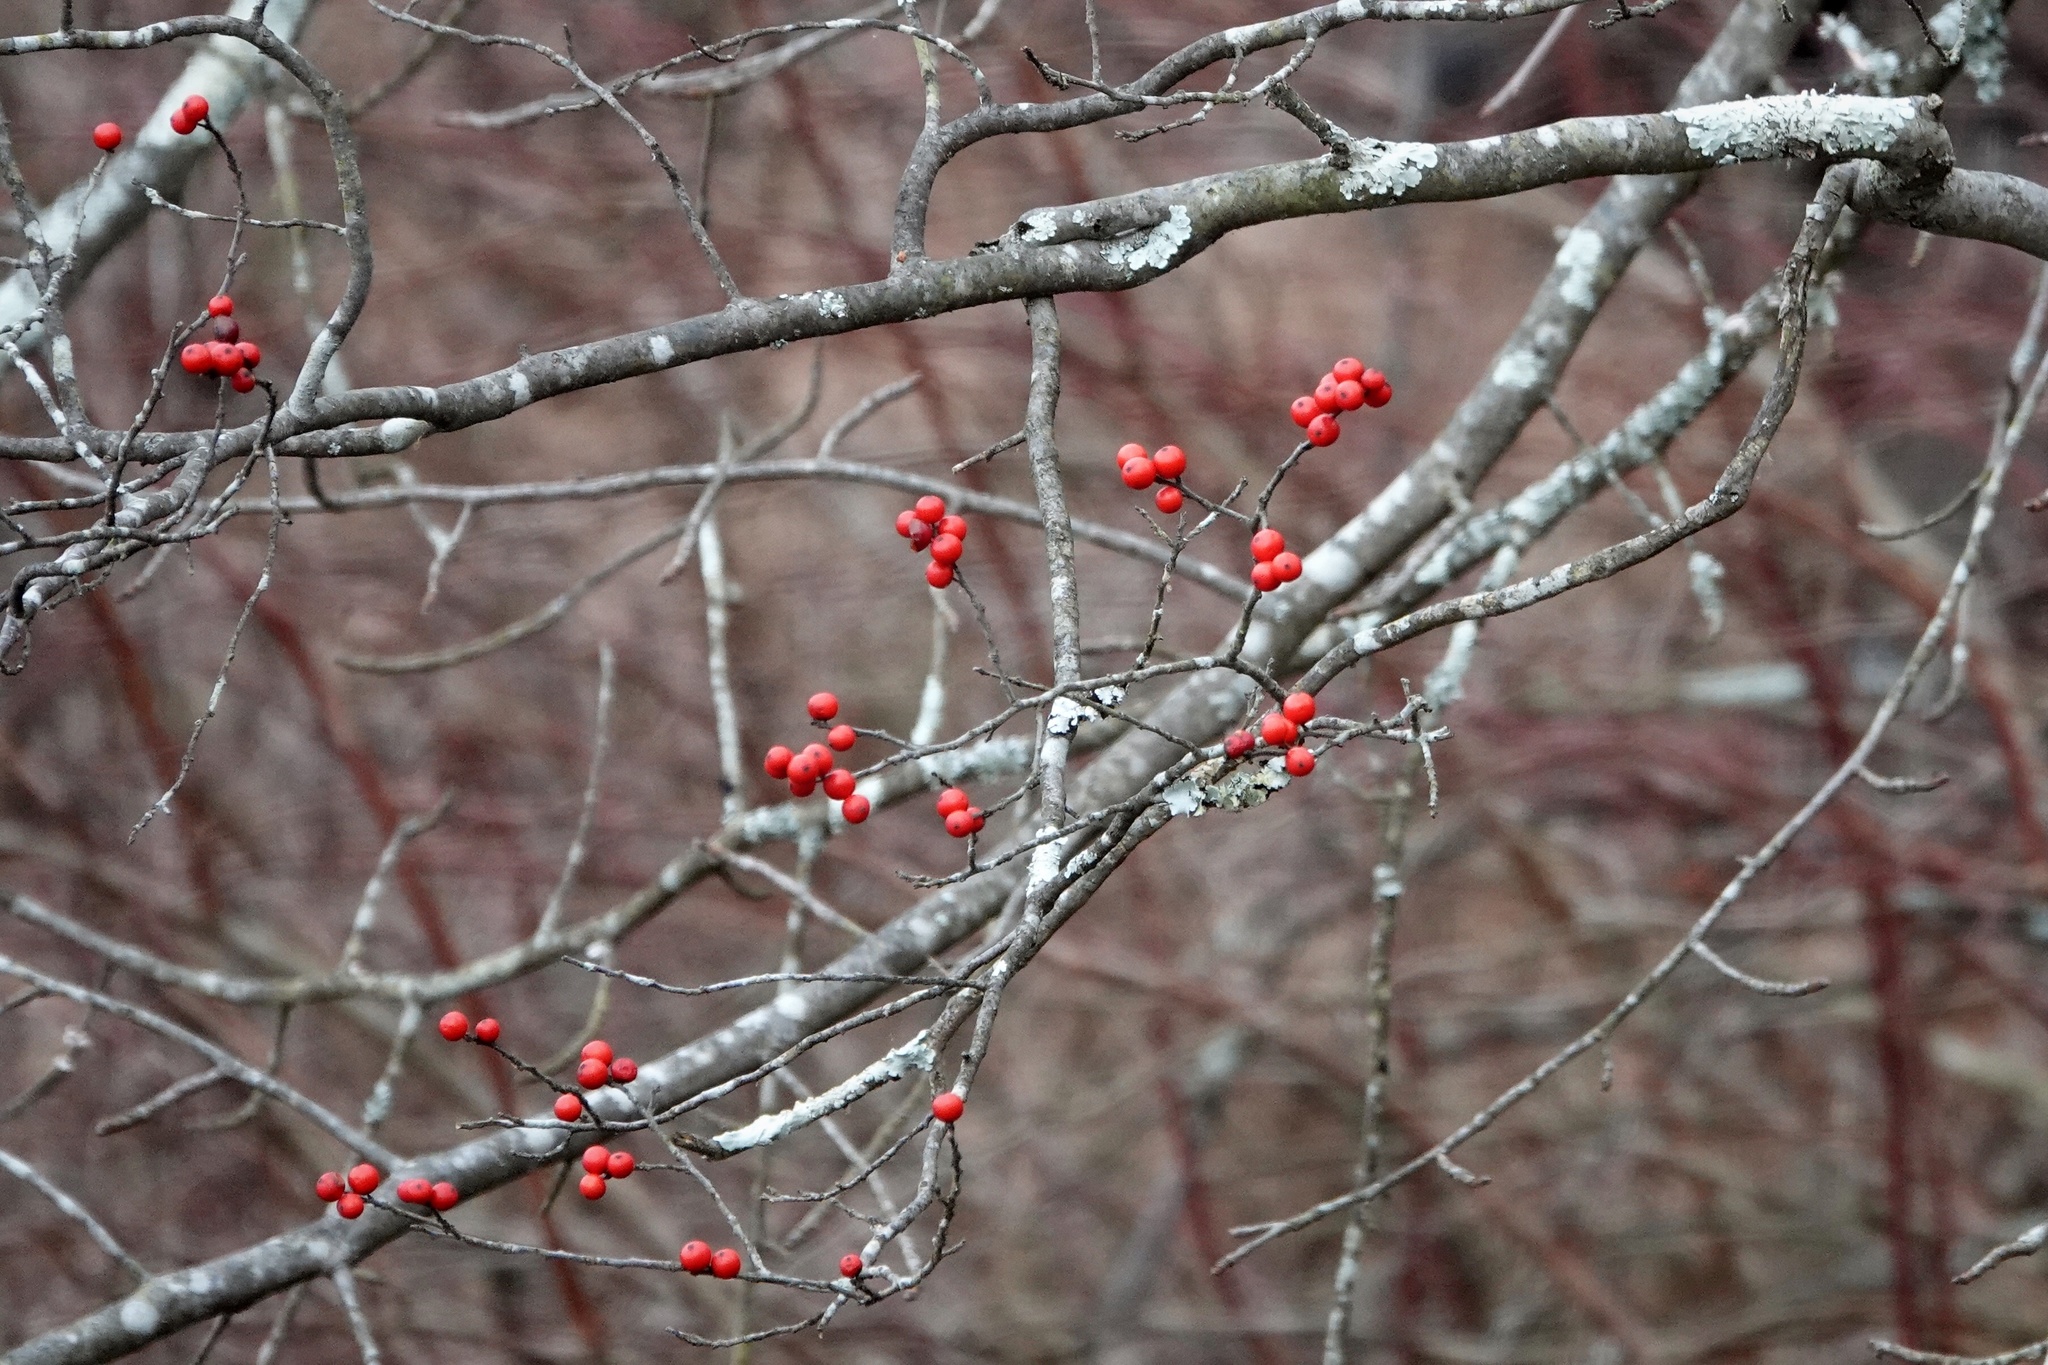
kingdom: Plantae
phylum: Tracheophyta
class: Magnoliopsida
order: Aquifoliales
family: Aquifoliaceae
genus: Ilex
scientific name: Ilex verticillata
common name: Virginia winterberry
